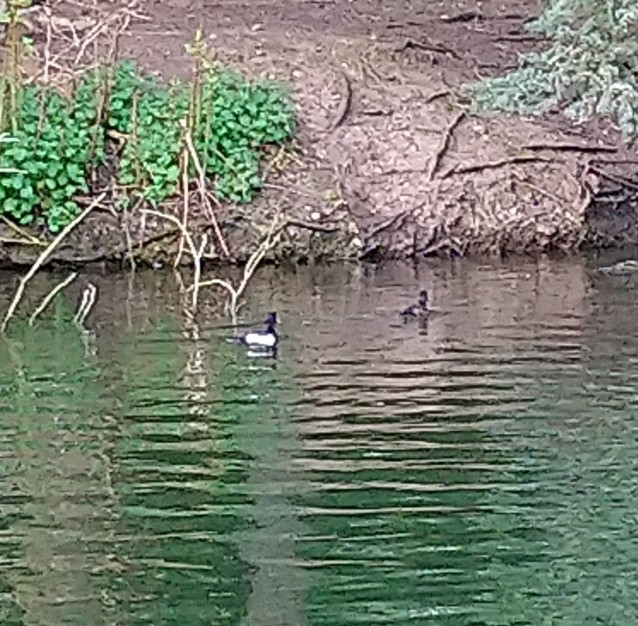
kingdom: Animalia
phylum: Chordata
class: Aves
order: Anseriformes
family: Anatidae
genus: Aythya
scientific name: Aythya fuligula
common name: Tufted duck
